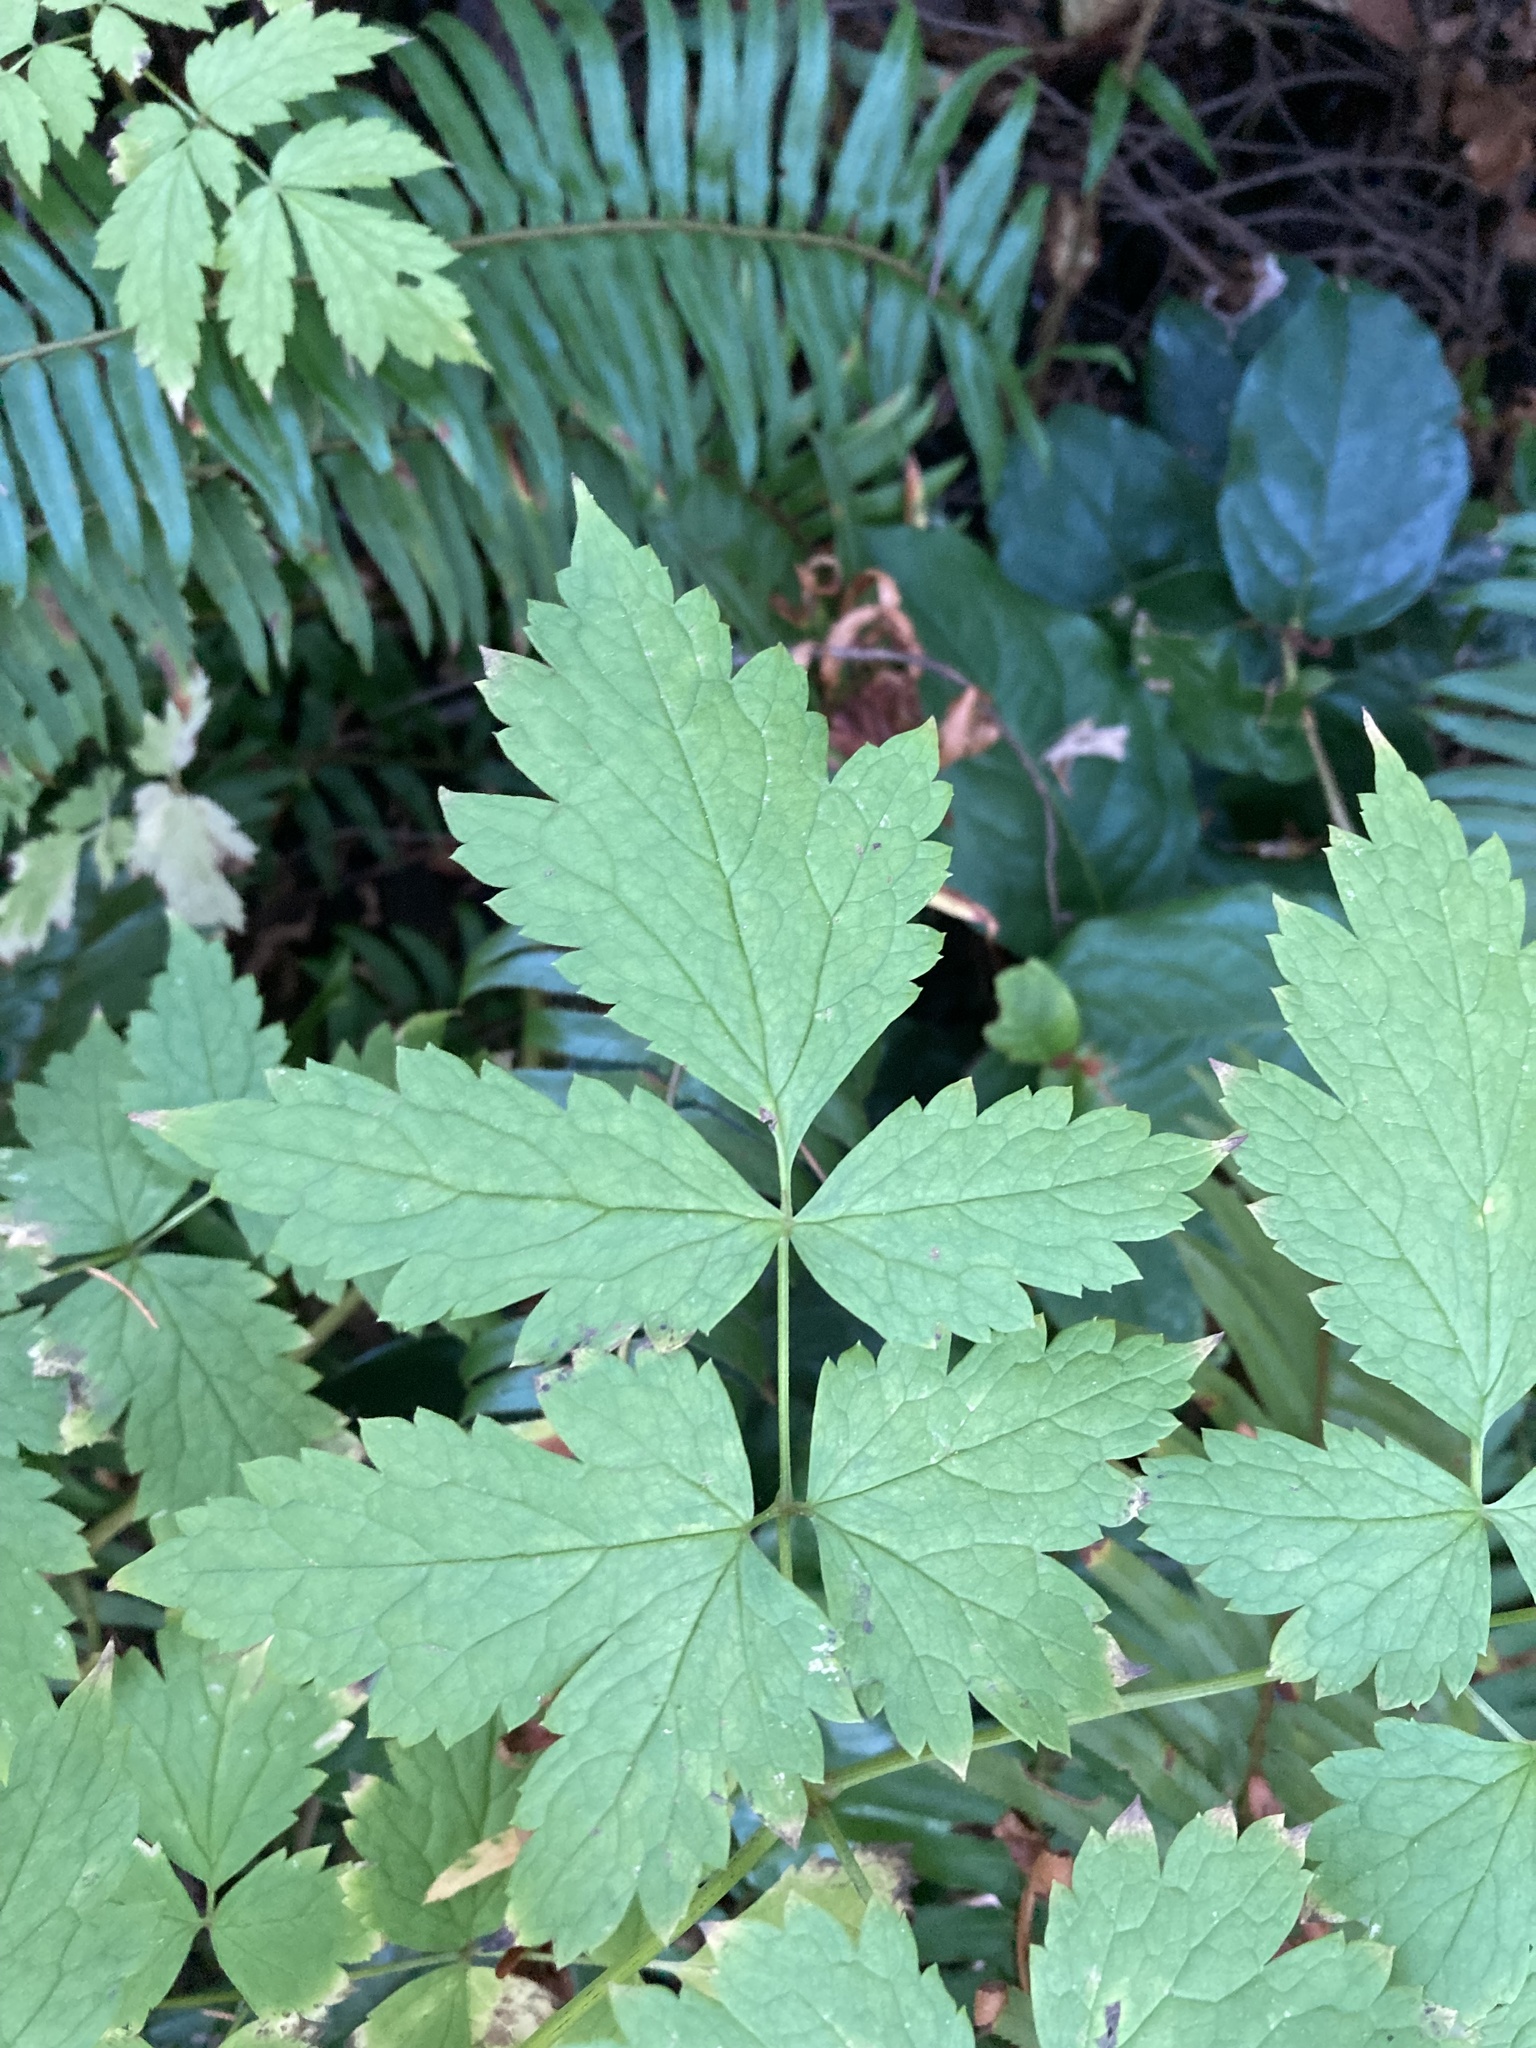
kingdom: Plantae
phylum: Tracheophyta
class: Magnoliopsida
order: Ranunculales
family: Ranunculaceae
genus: Actaea
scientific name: Actaea rubra
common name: Red baneberry
